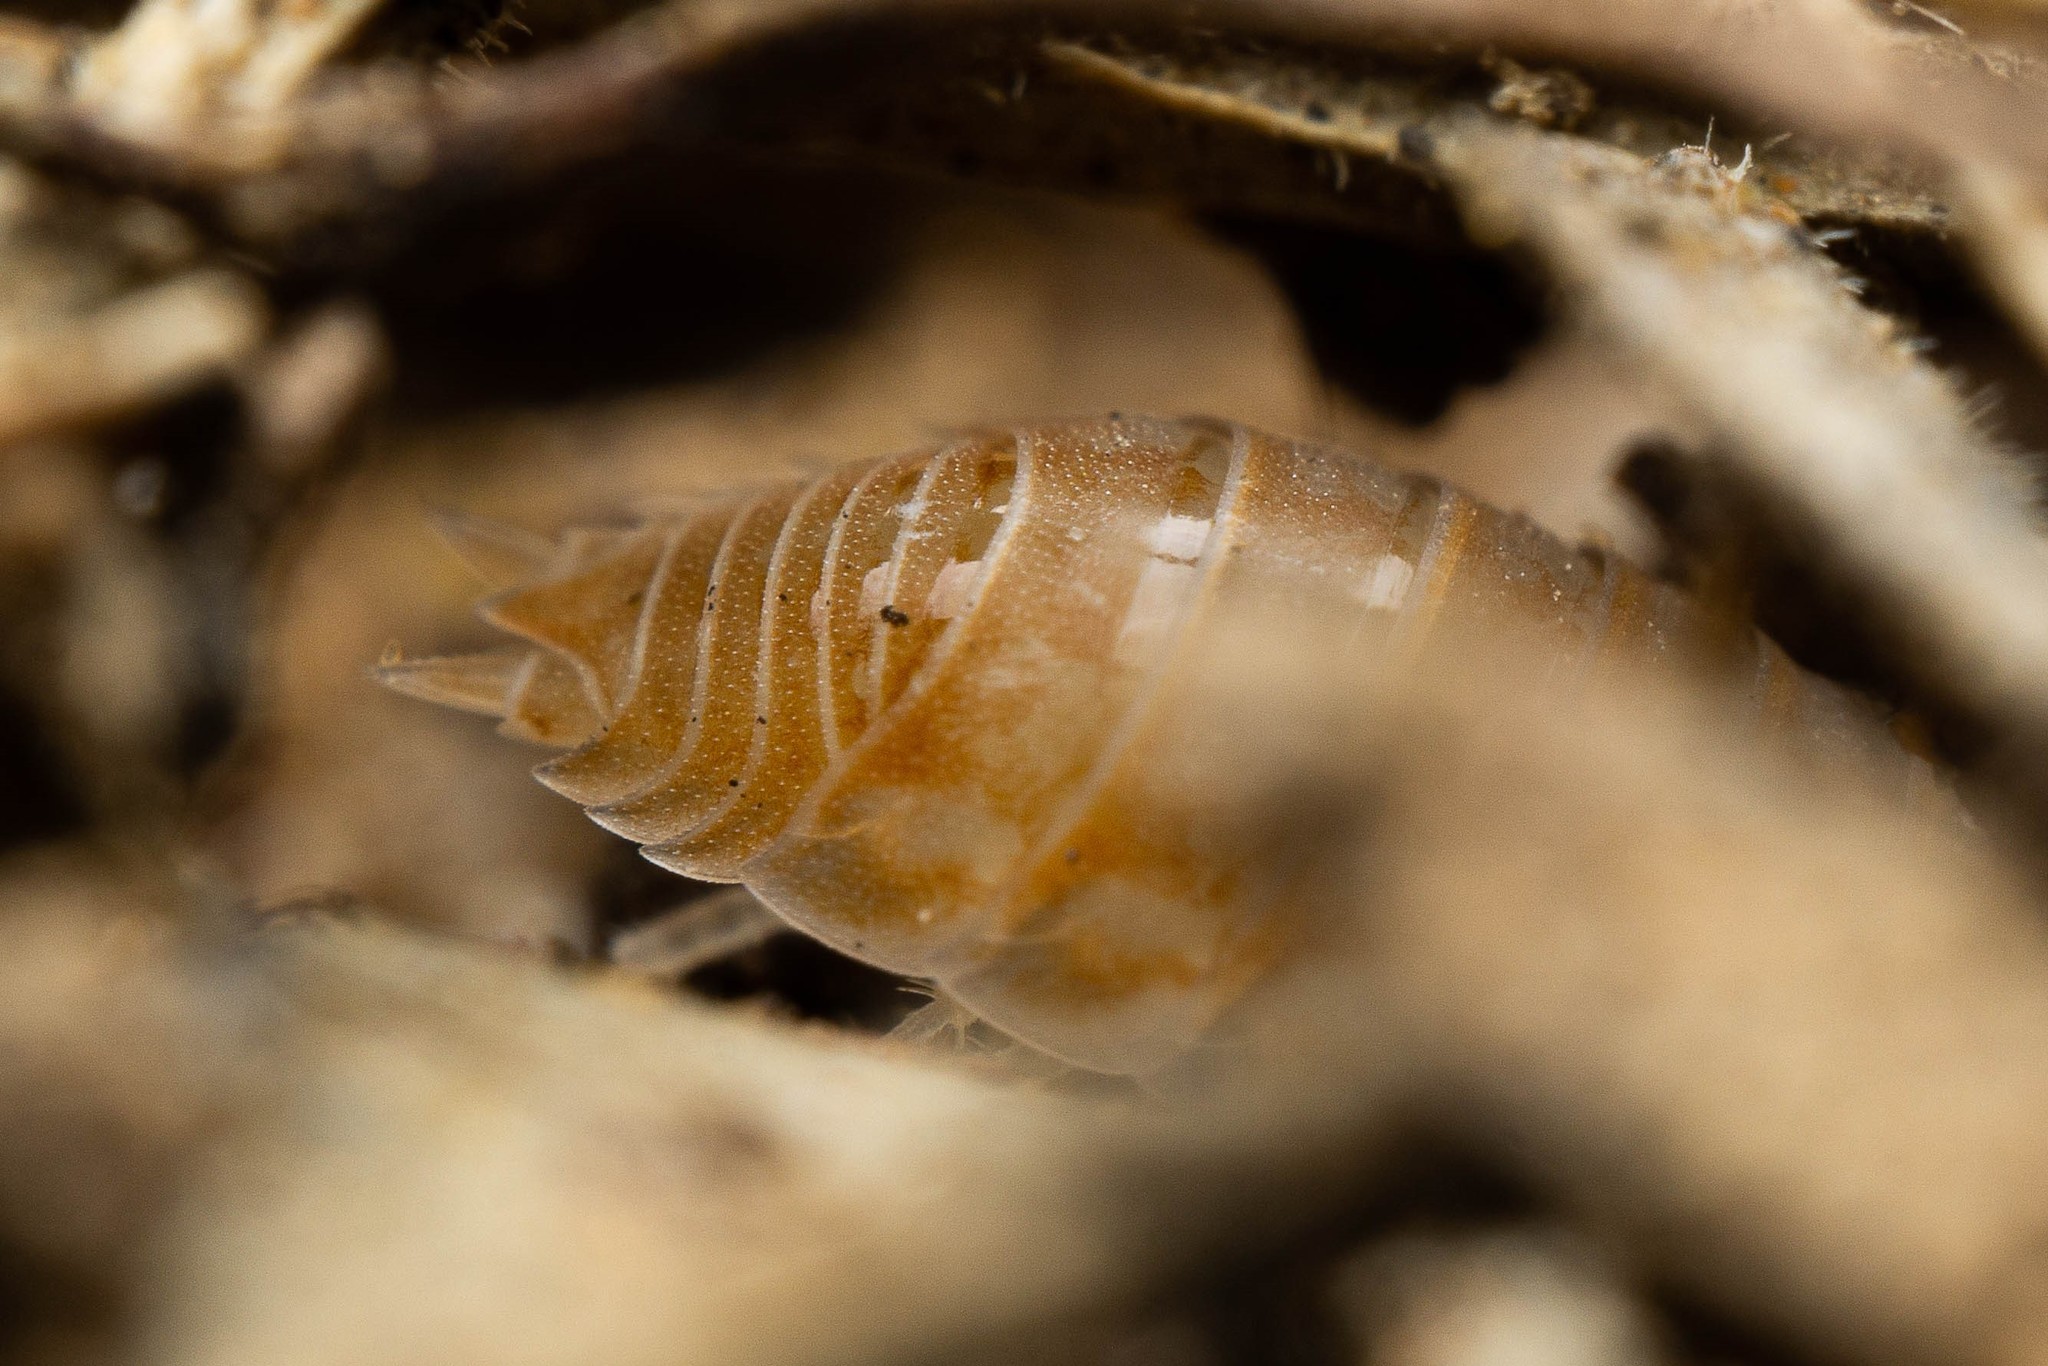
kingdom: Animalia
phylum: Arthropoda
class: Malacostraca
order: Isopoda
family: Porcellionidae
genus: Agabiformius
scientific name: Agabiformius lentus
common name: Pillbug
